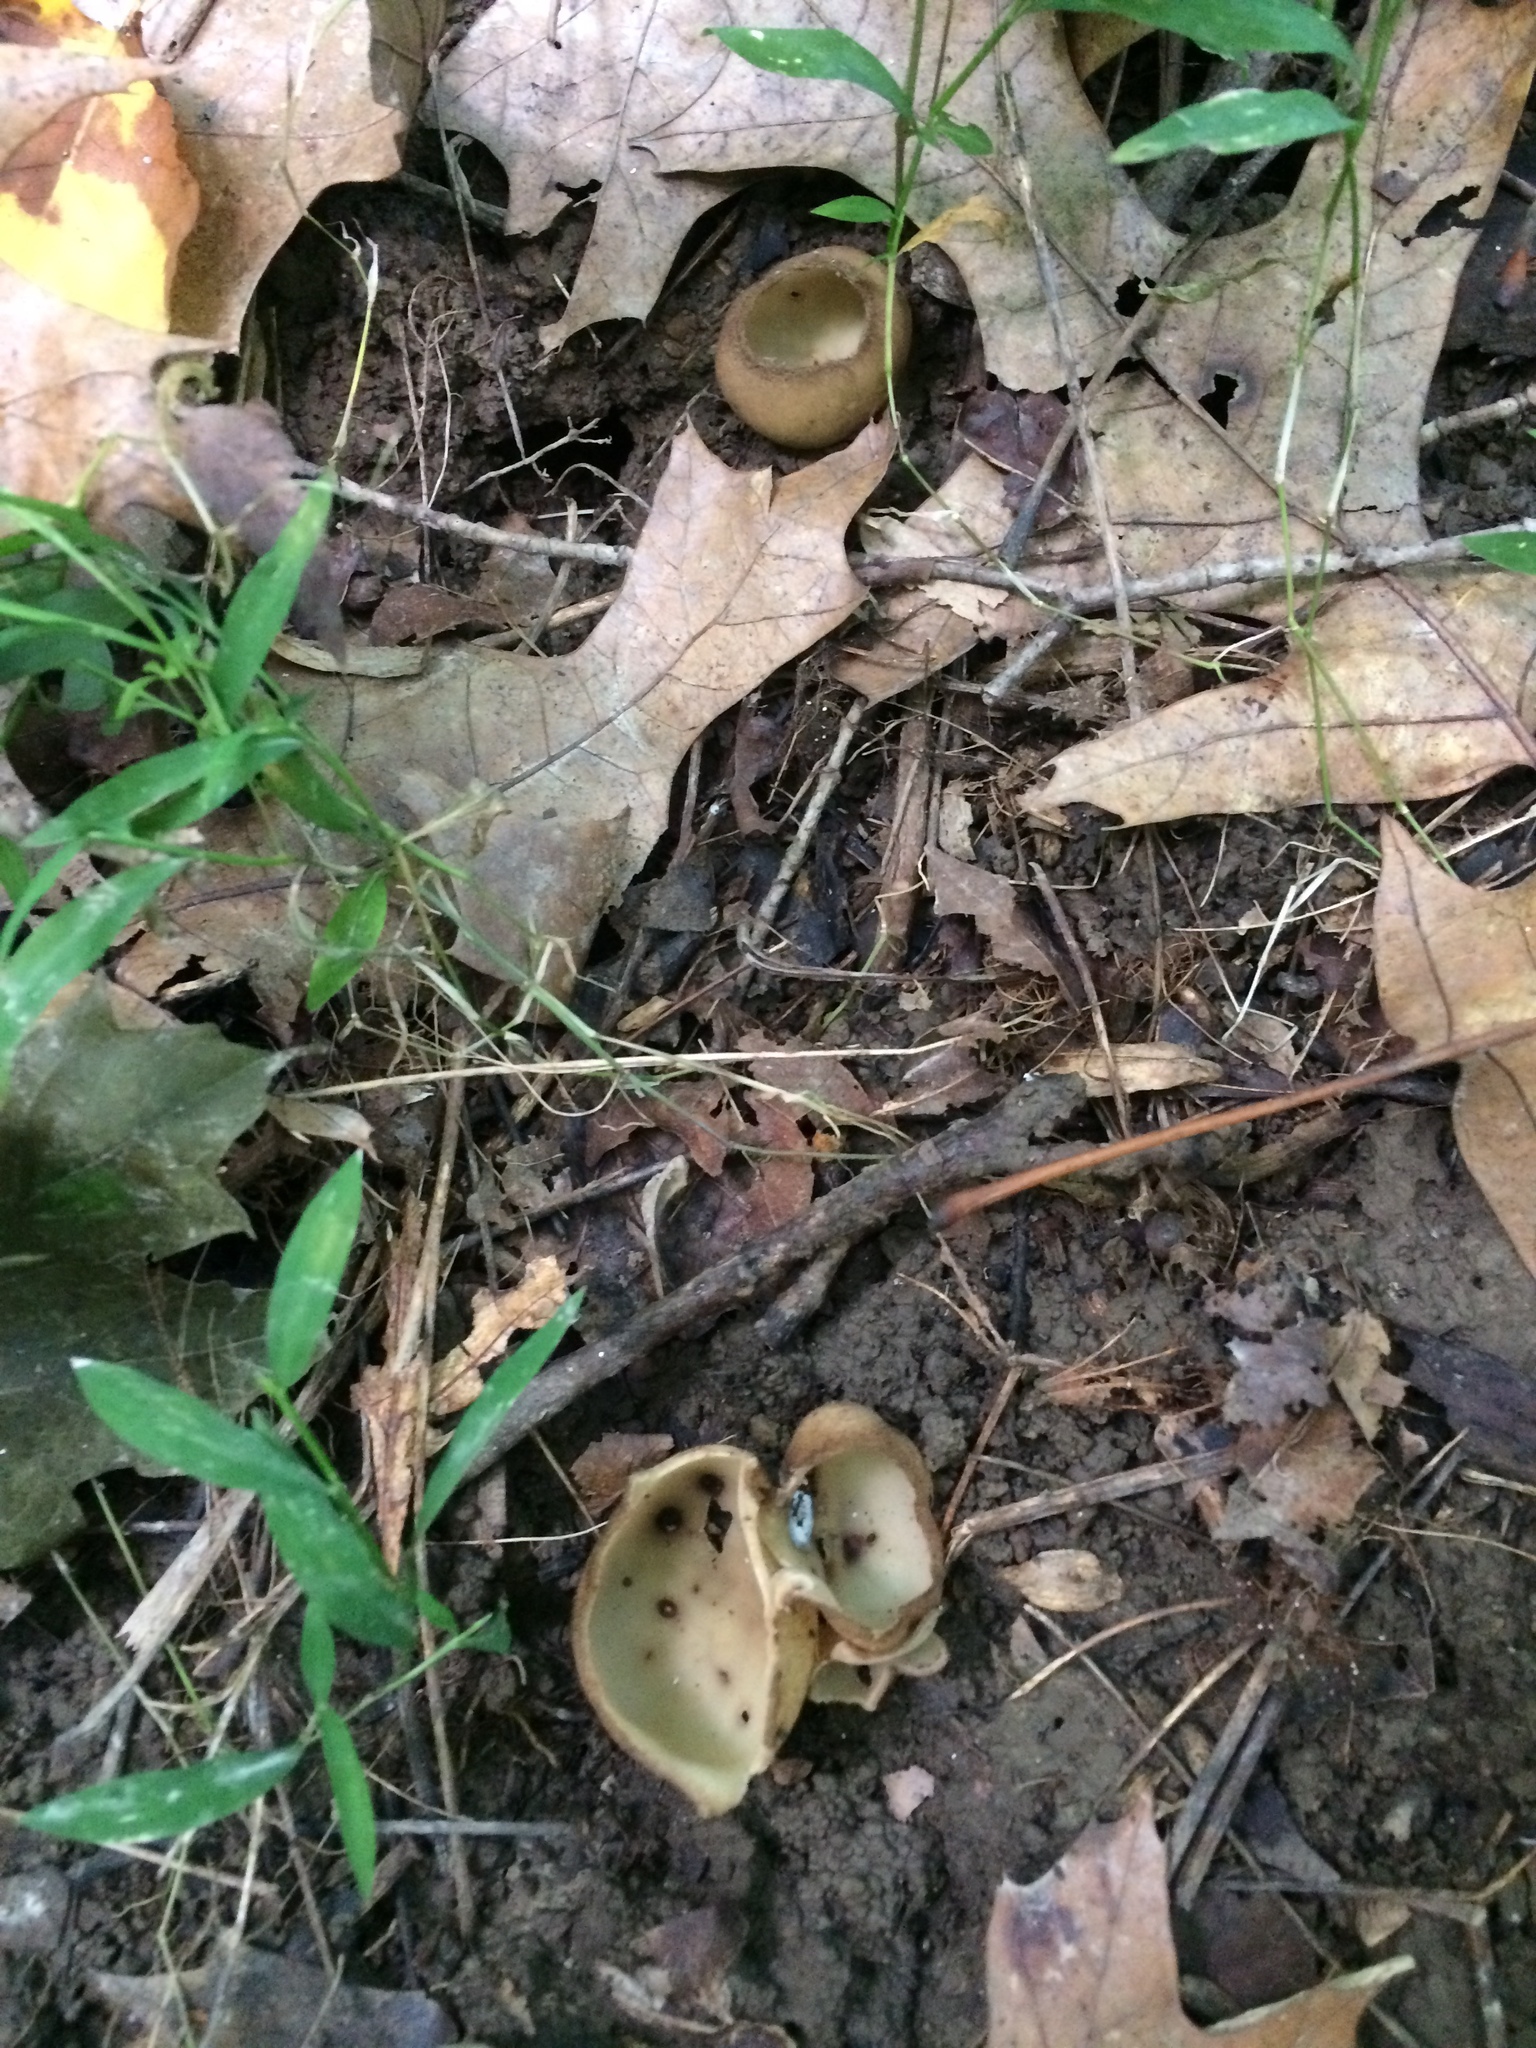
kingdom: Fungi
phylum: Ascomycota
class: Pezizomycetes
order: Pezizales
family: Pyronemataceae
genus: Jafnea
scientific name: Jafnea semitosta
